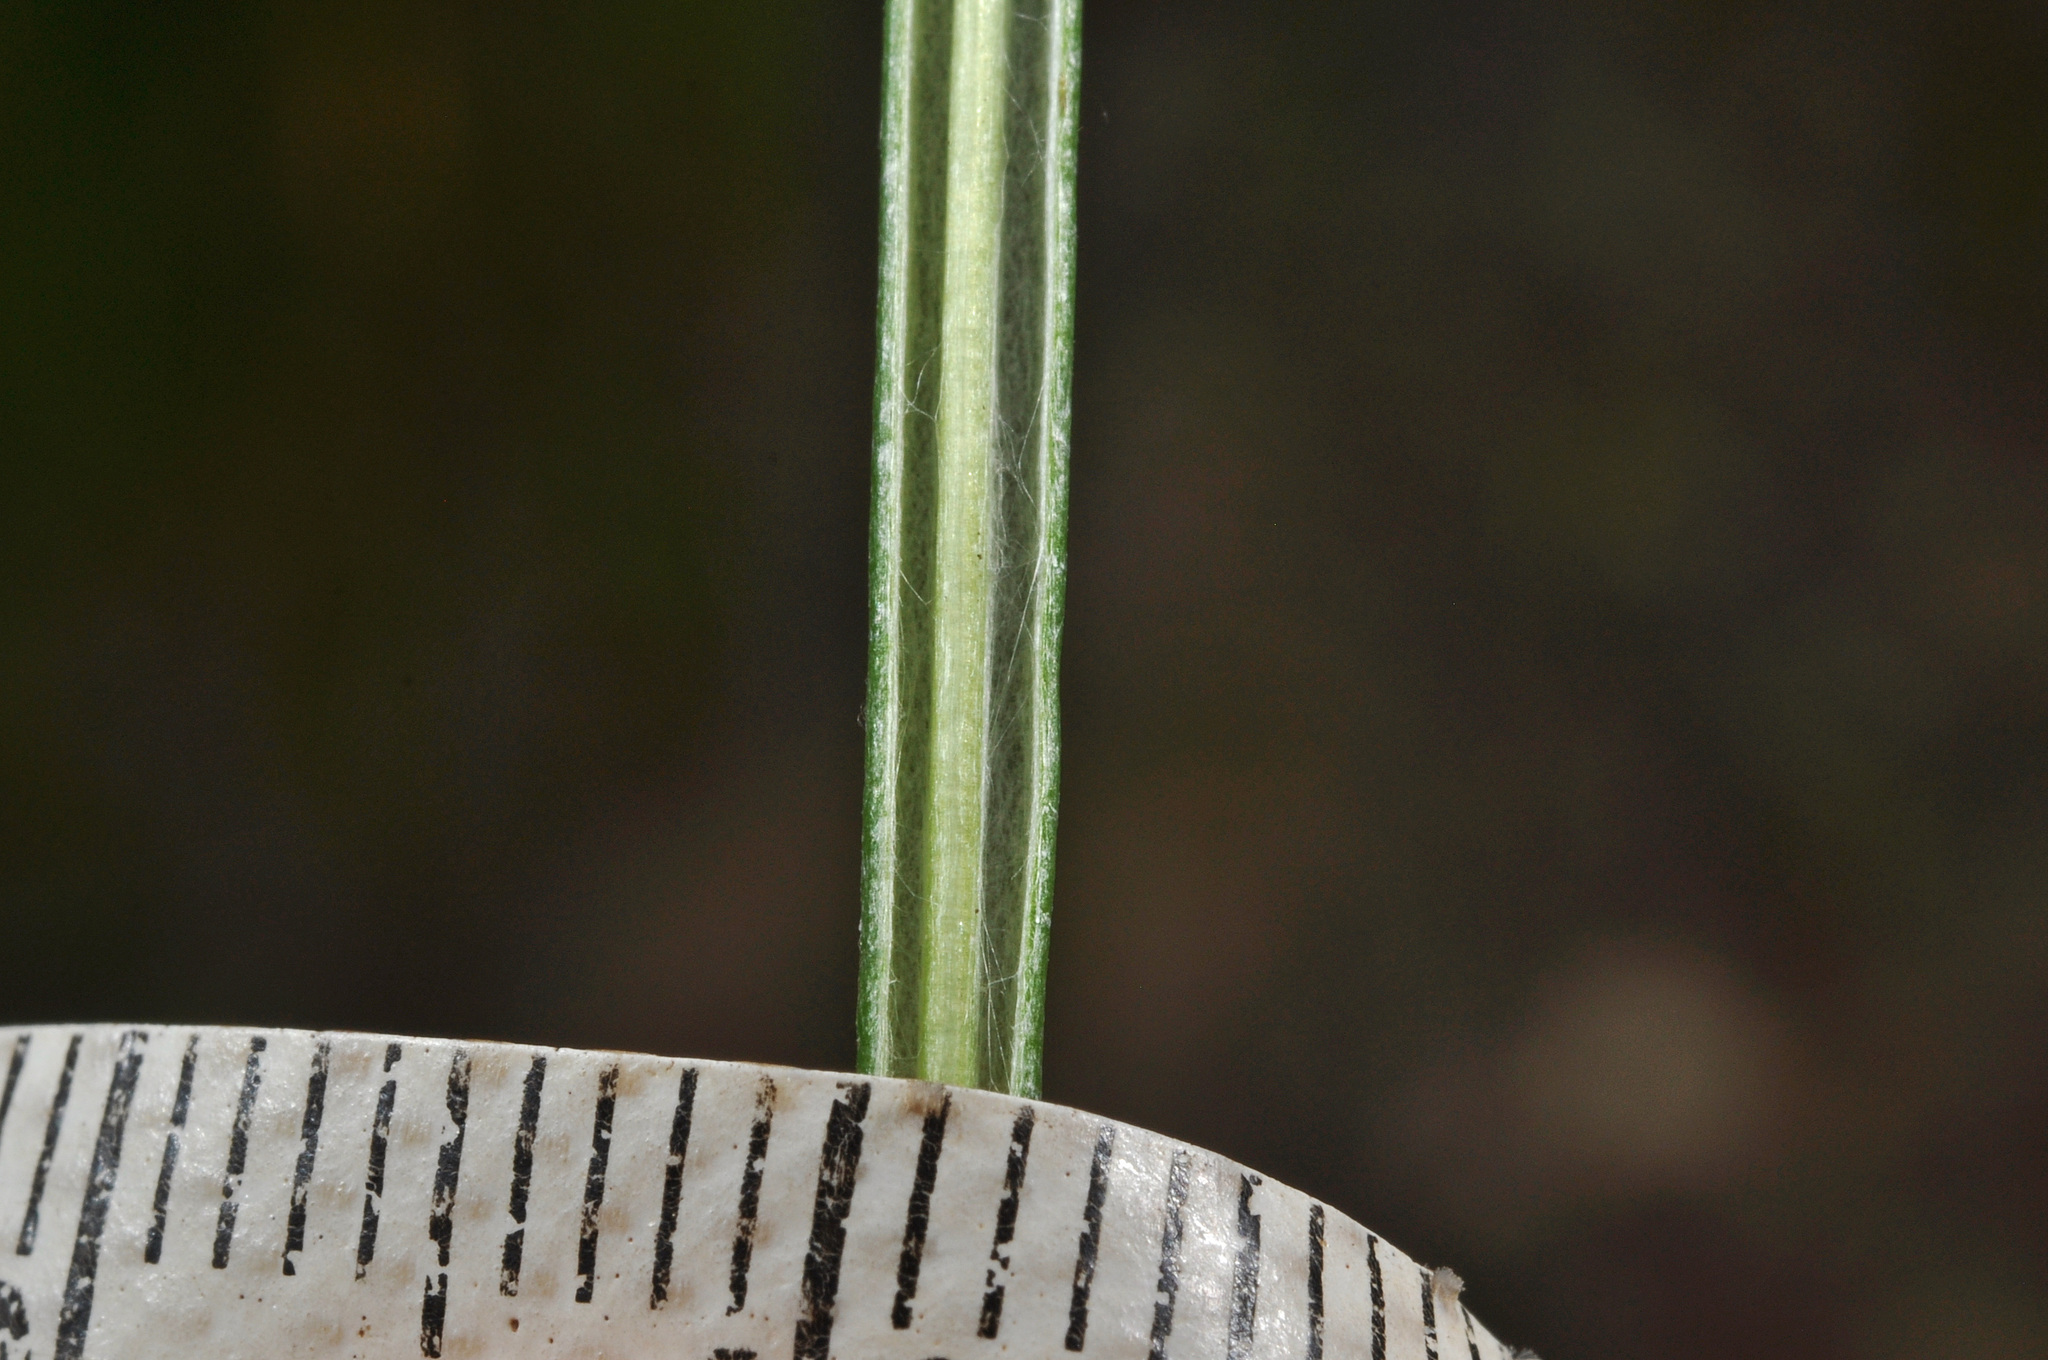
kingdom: Plantae
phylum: Tracheophyta
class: Magnoliopsida
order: Asterales
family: Asteraceae
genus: Celmisia
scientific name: Celmisia gracilenta
